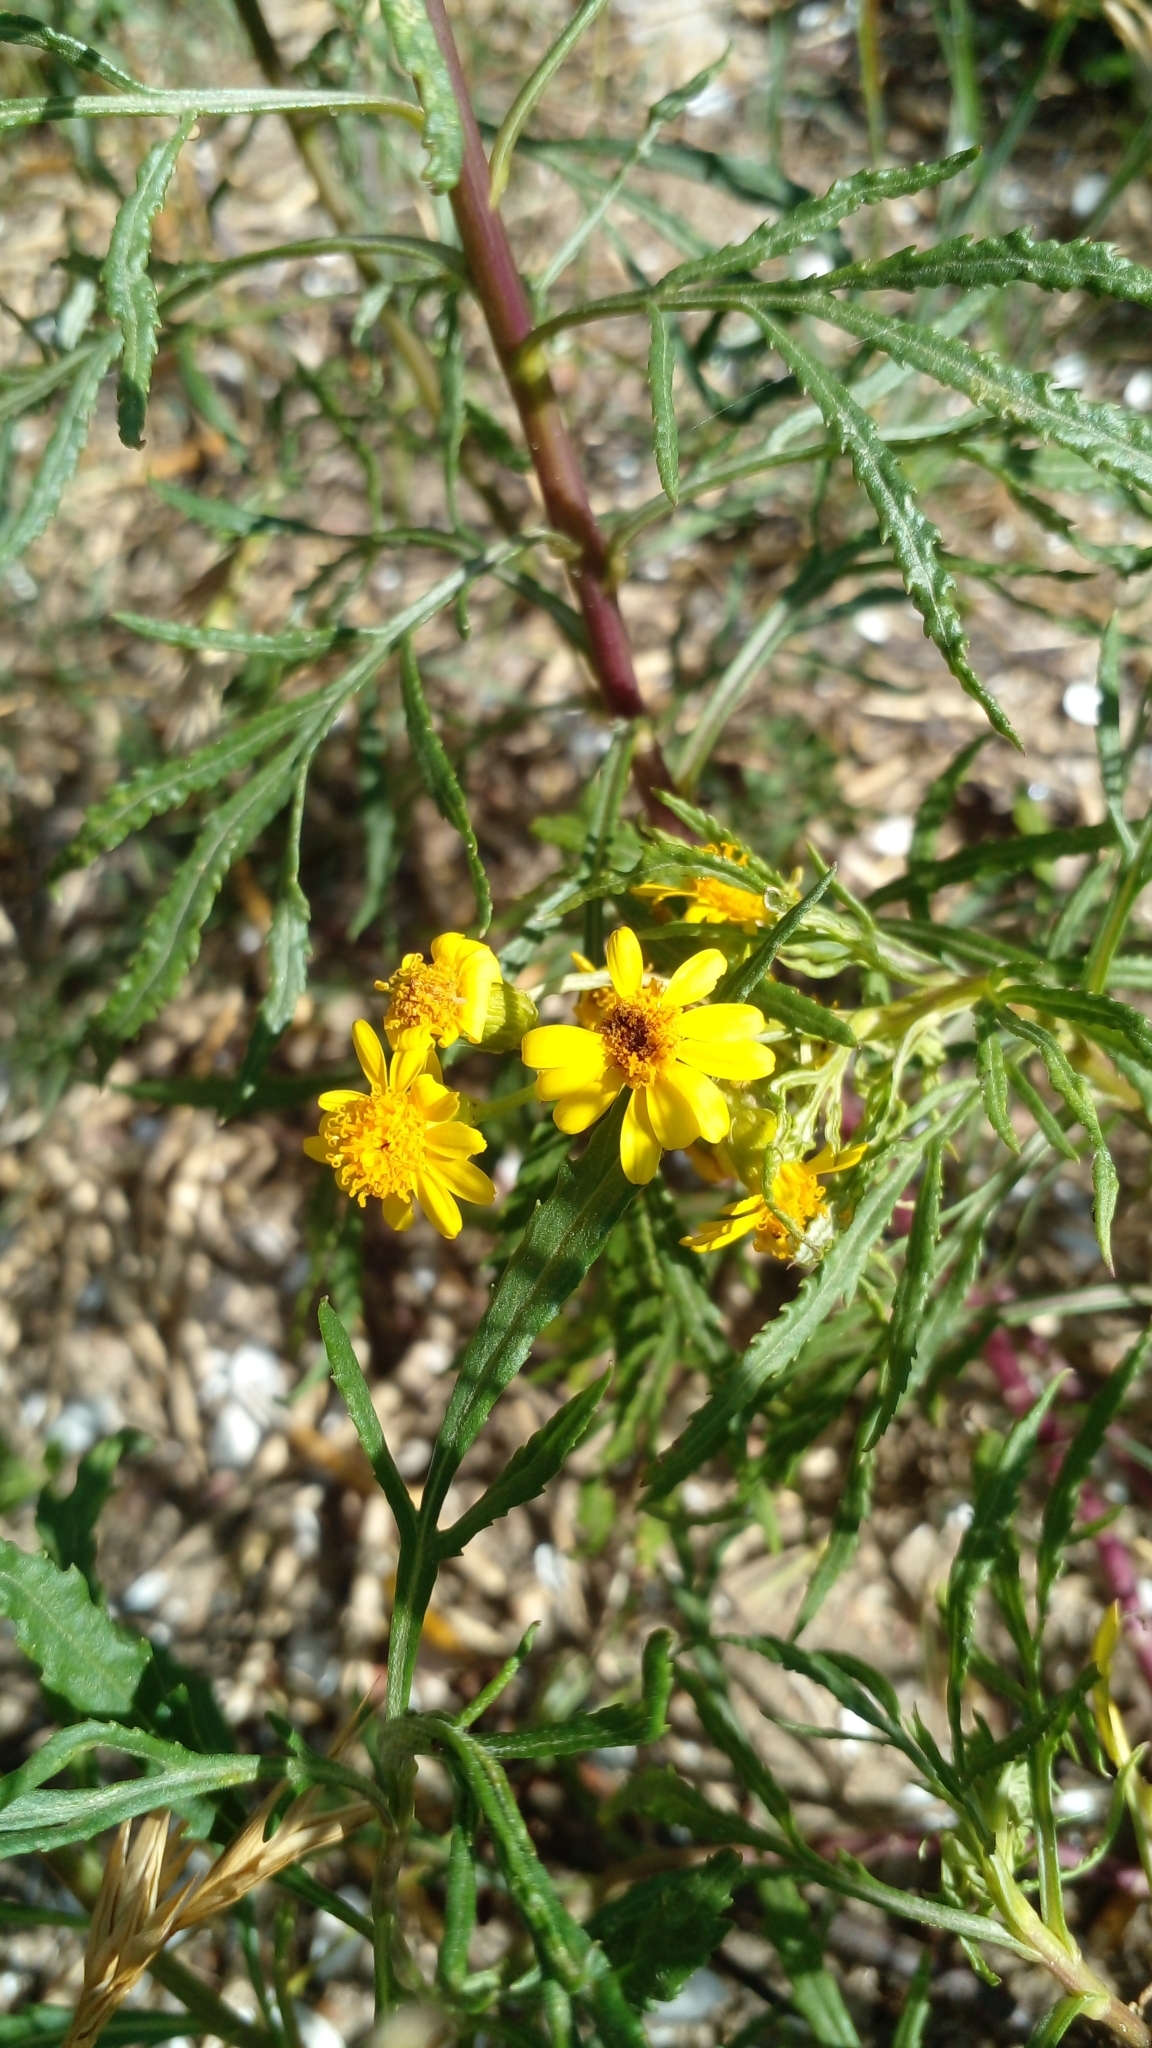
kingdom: Plantae
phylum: Tracheophyta
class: Magnoliopsida
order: Asterales
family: Asteraceae
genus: Senecio
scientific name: Senecio brasiliensis
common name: Hemp-leaf ragwort
